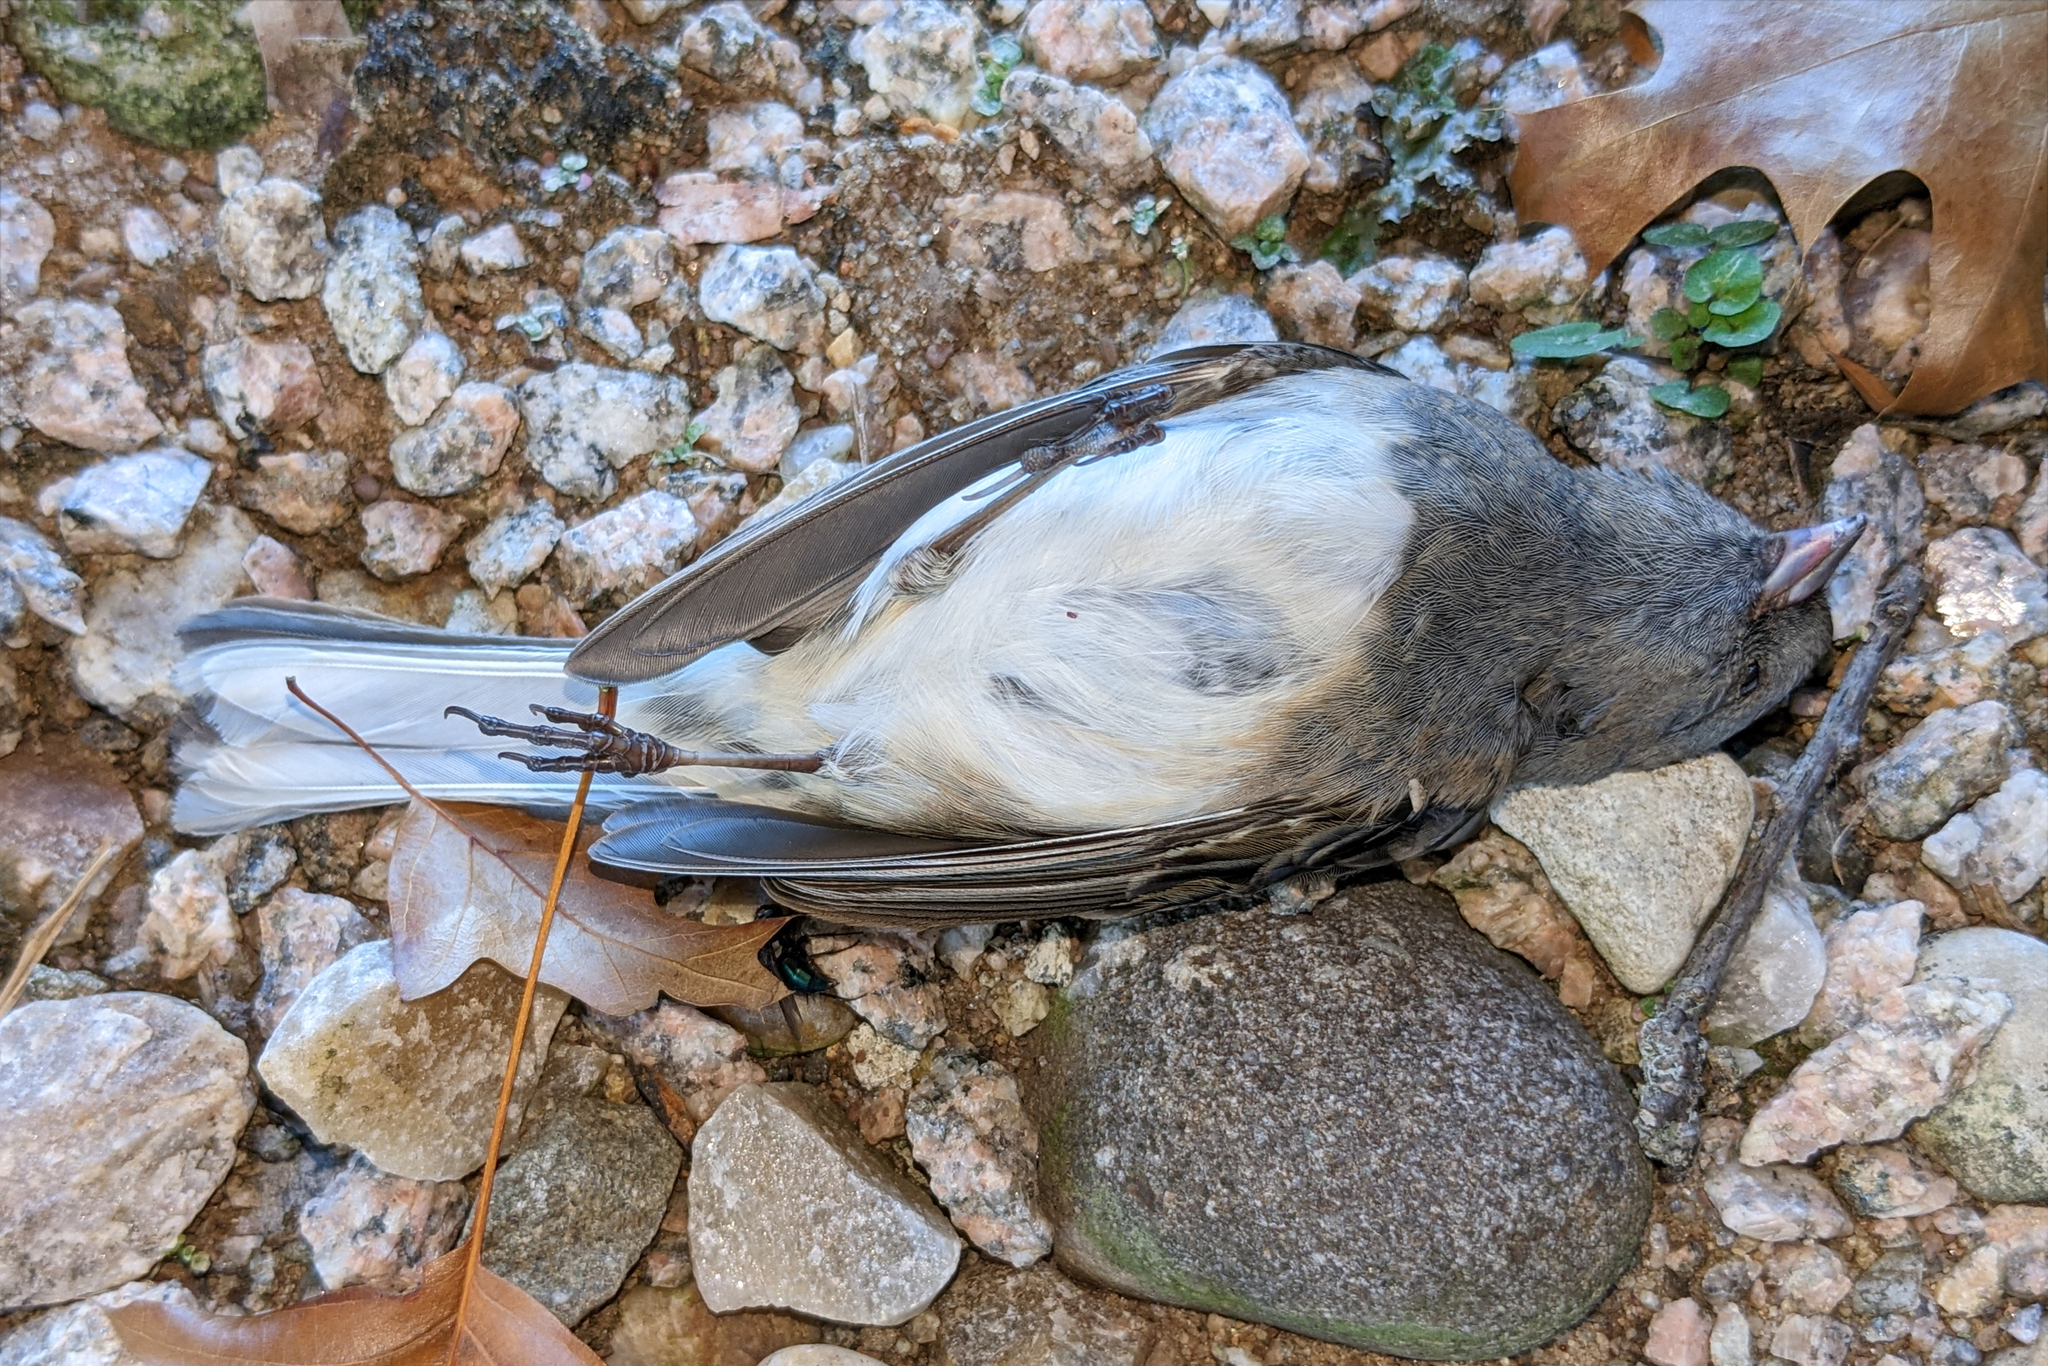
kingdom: Animalia
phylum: Chordata
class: Aves
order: Passeriformes
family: Passerellidae
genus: Junco
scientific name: Junco hyemalis
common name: Dark-eyed junco
